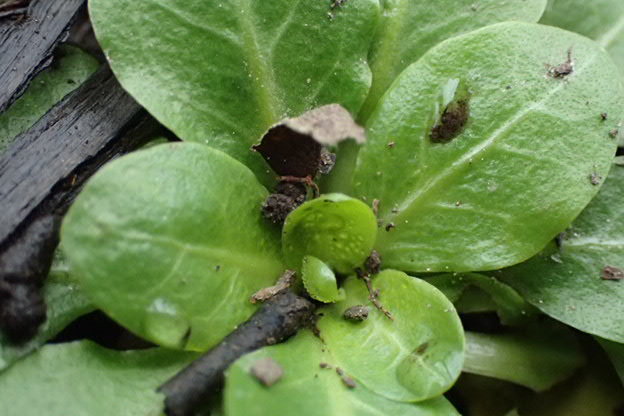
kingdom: Plantae
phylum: Tracheophyta
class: Magnoliopsida
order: Ericales
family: Primulaceae
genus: Samolus
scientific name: Samolus parviflorus
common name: False water pimpernel
